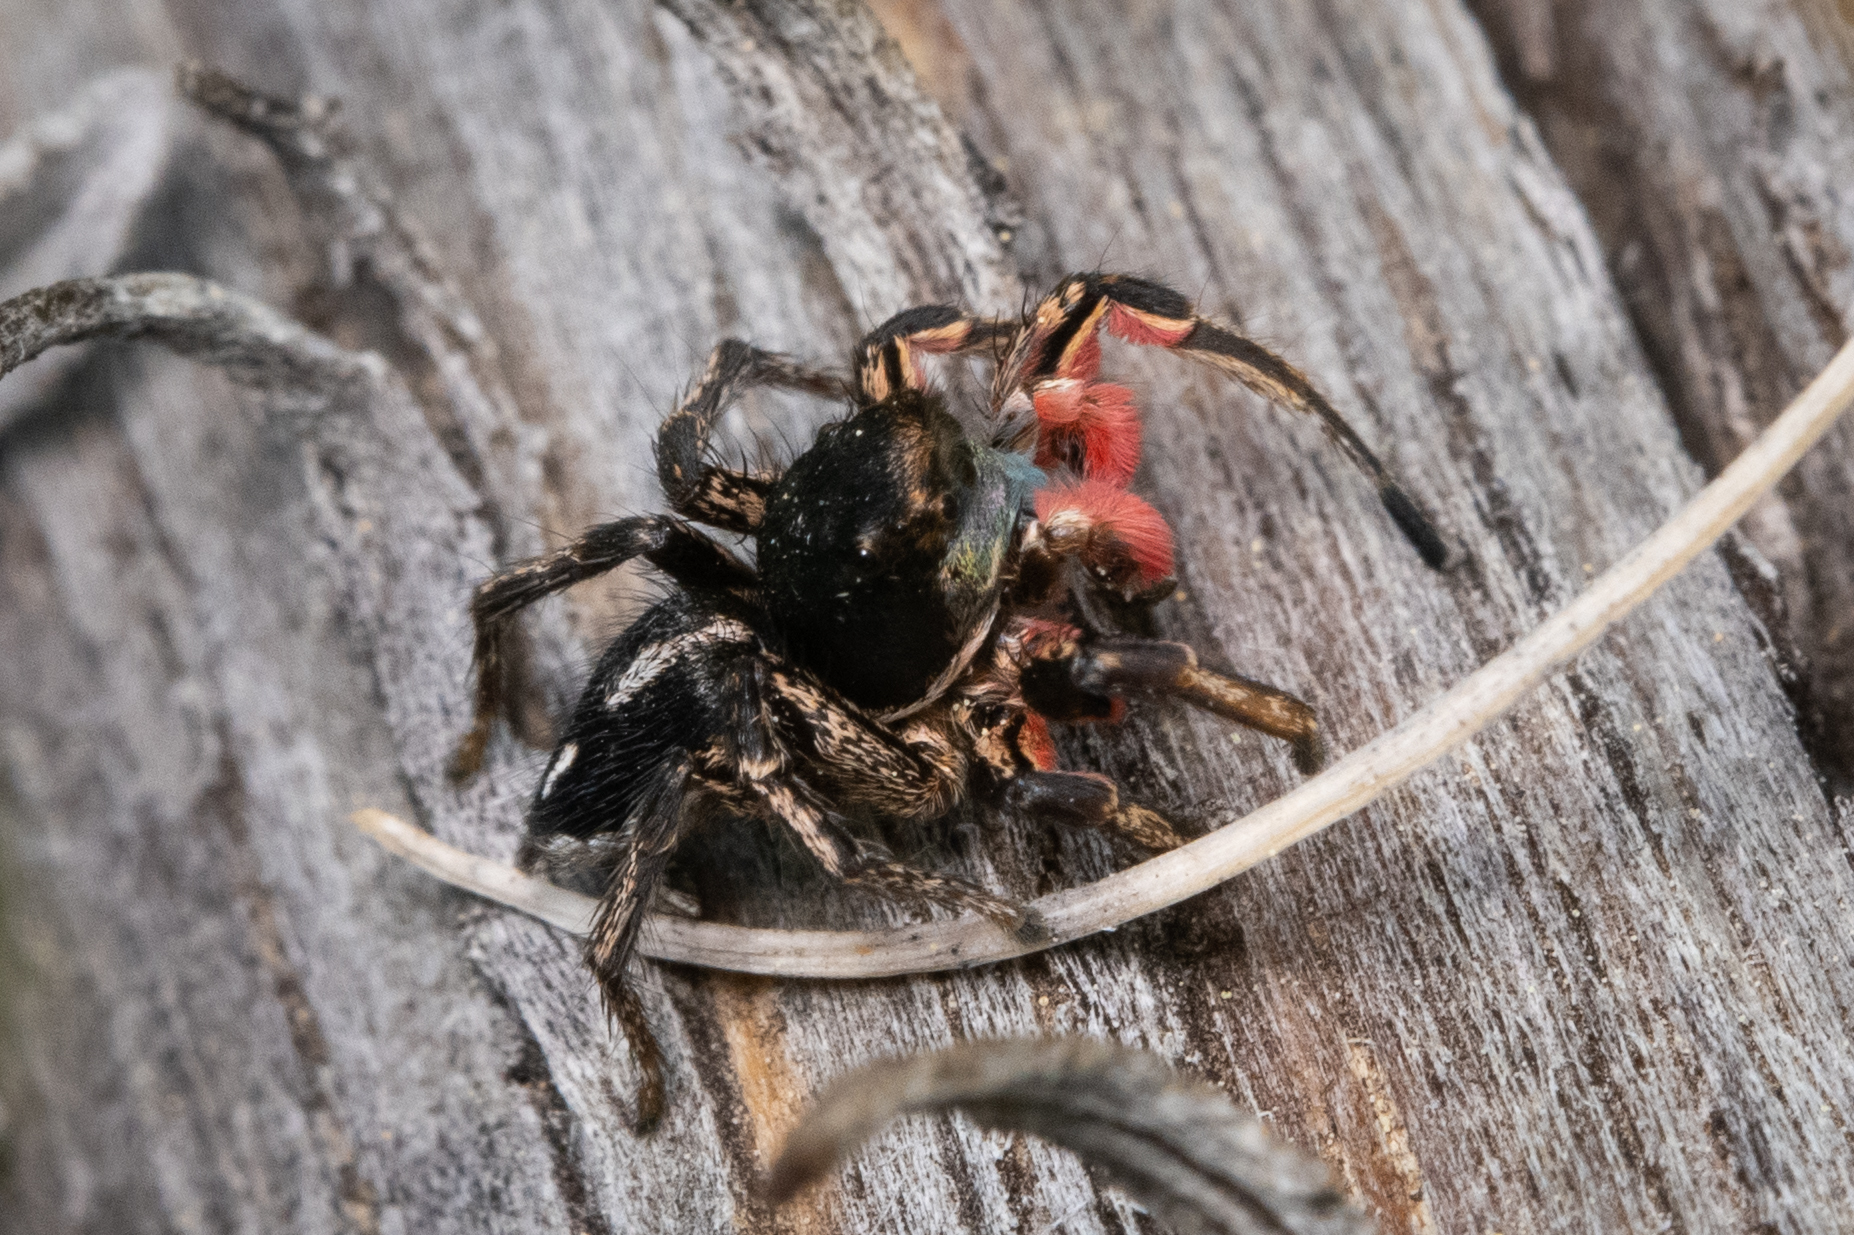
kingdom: Animalia
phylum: Arthropoda
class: Arachnida
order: Araneae
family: Salticidae
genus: Habronattus
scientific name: Habronattus americanus
